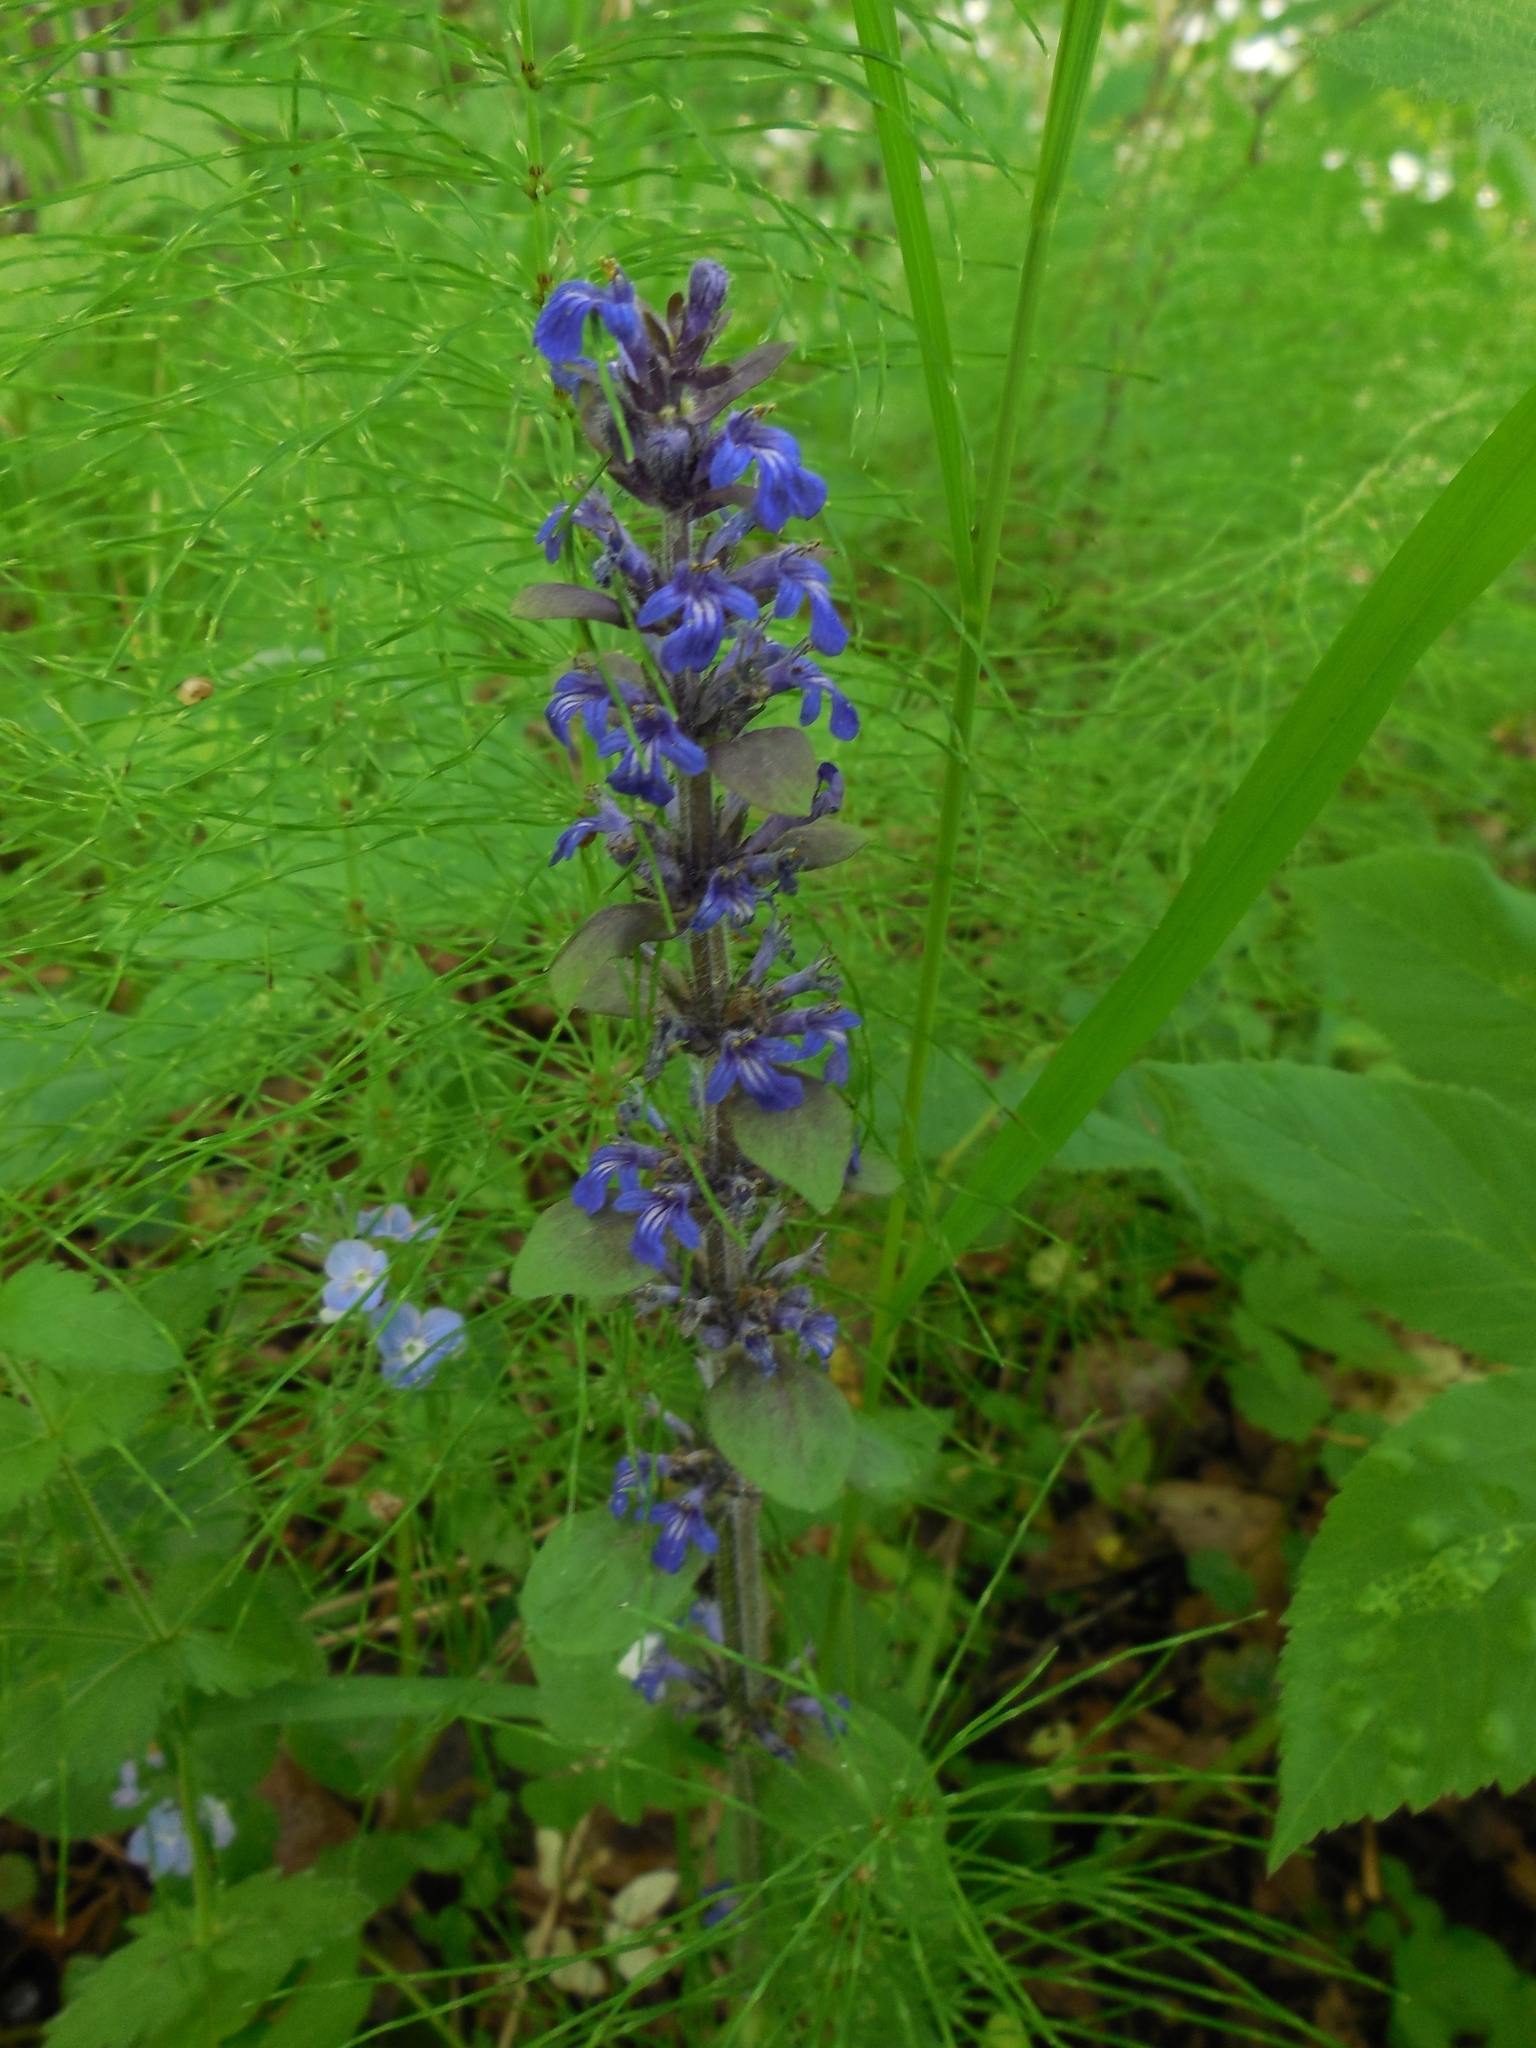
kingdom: Plantae
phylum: Tracheophyta
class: Magnoliopsida
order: Lamiales
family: Lamiaceae
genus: Ajuga
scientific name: Ajuga reptans
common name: Bugle
